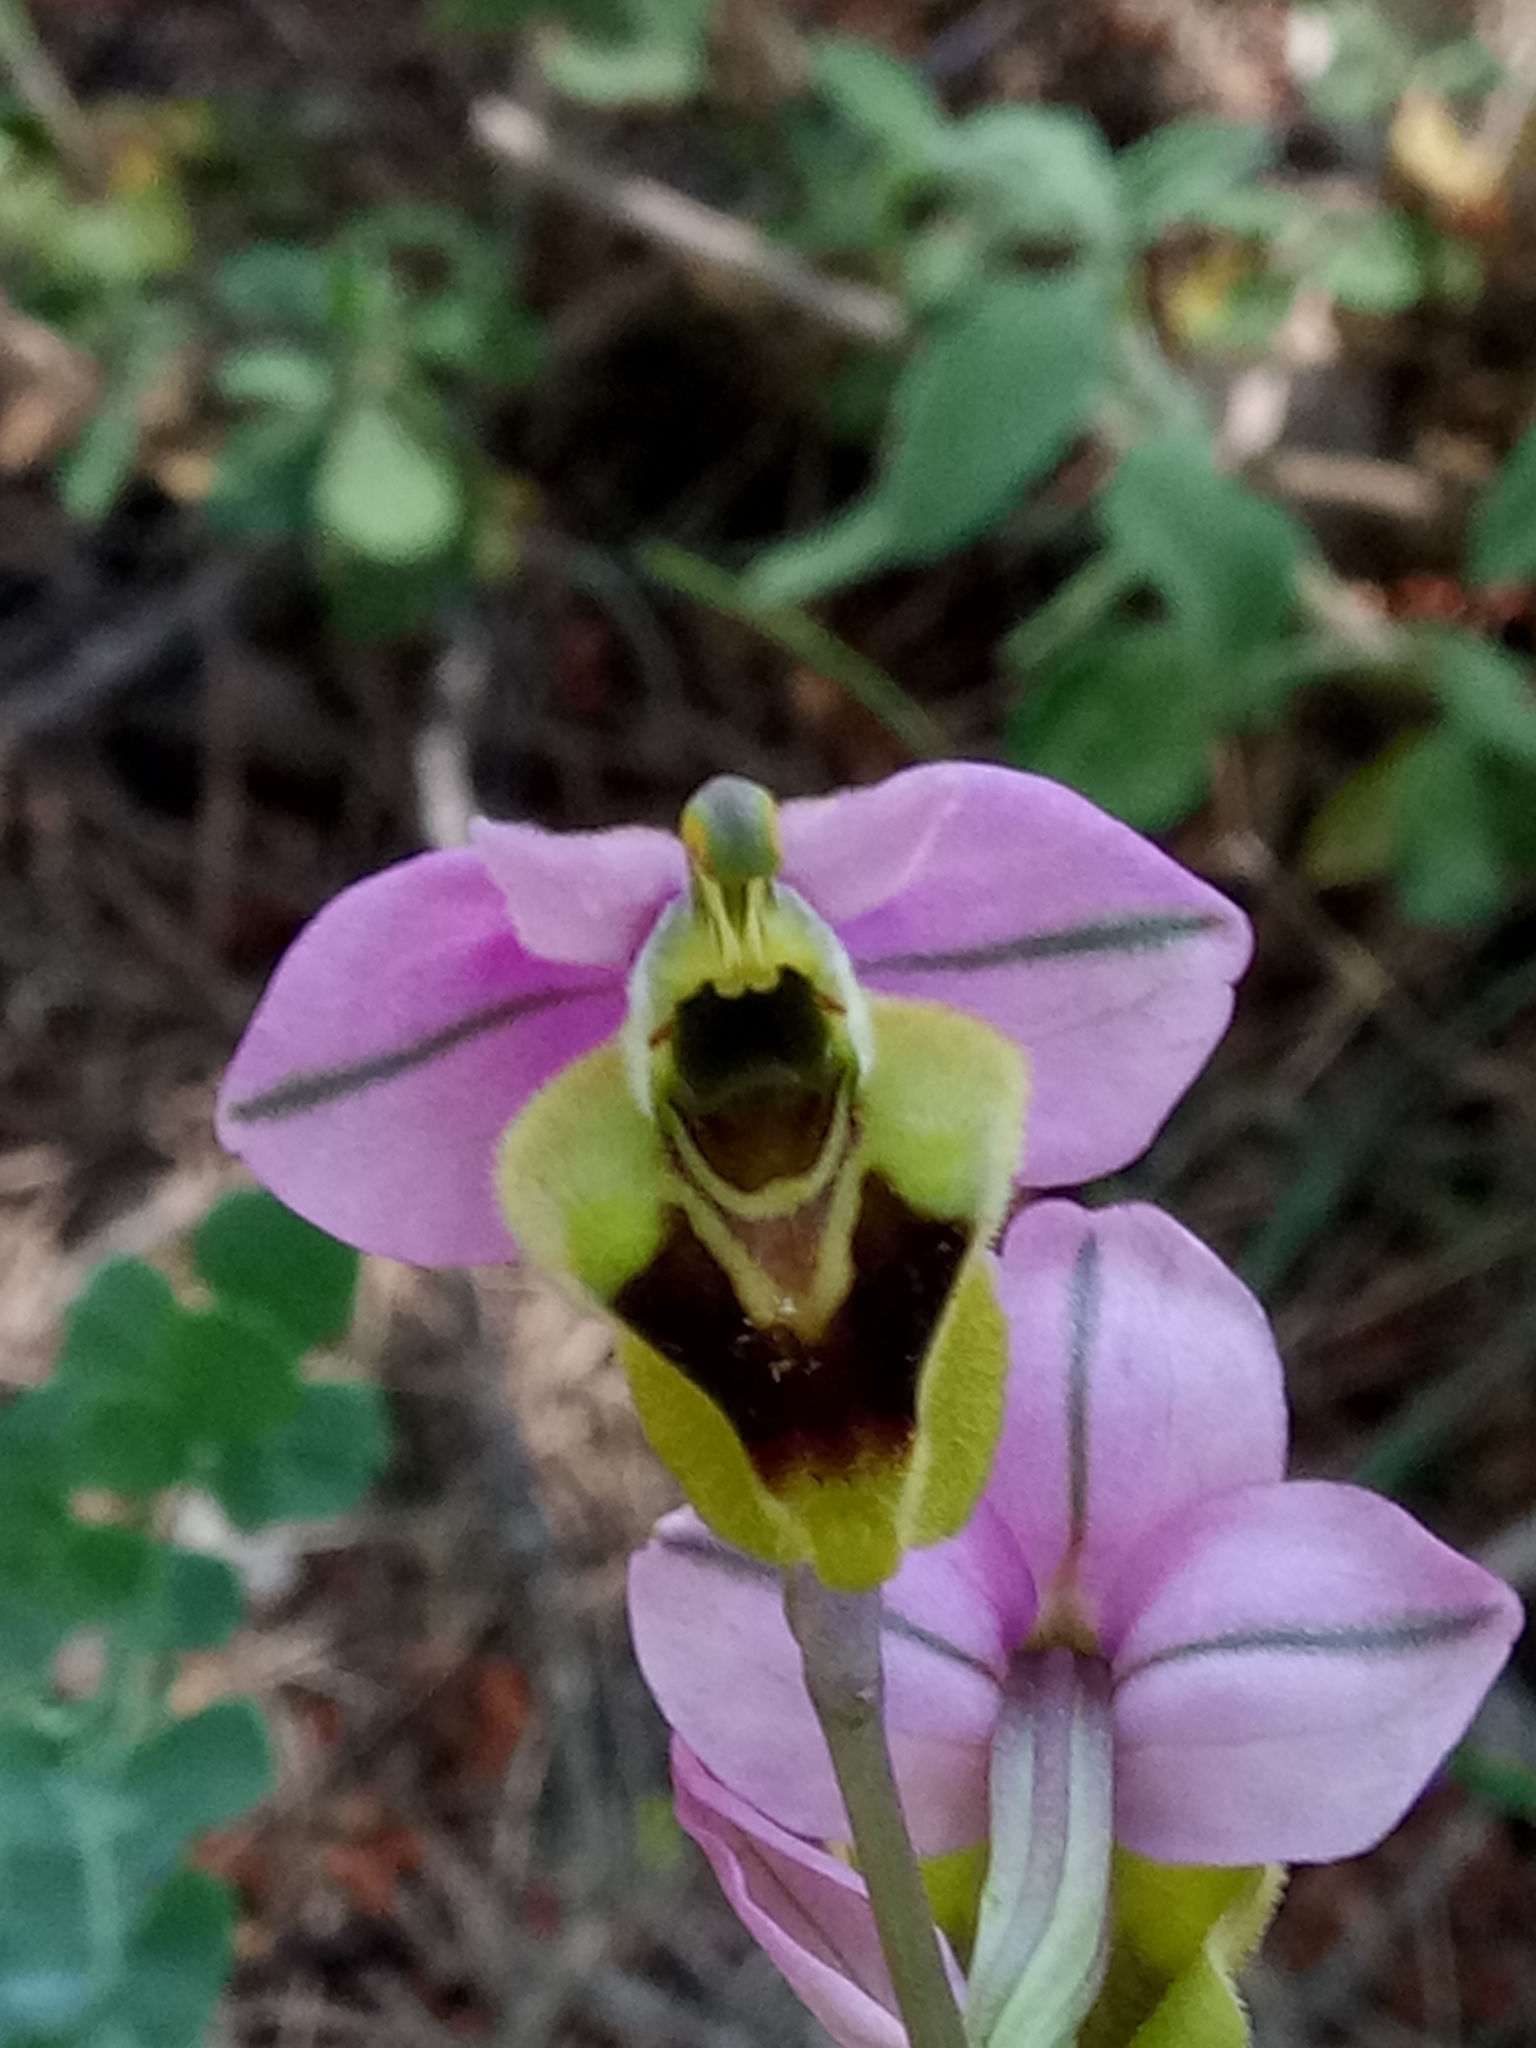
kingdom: Plantae
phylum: Tracheophyta
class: Liliopsida
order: Asparagales
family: Orchidaceae
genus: Ophrys
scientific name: Ophrys tenthredinifera
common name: Sawfly orchid
